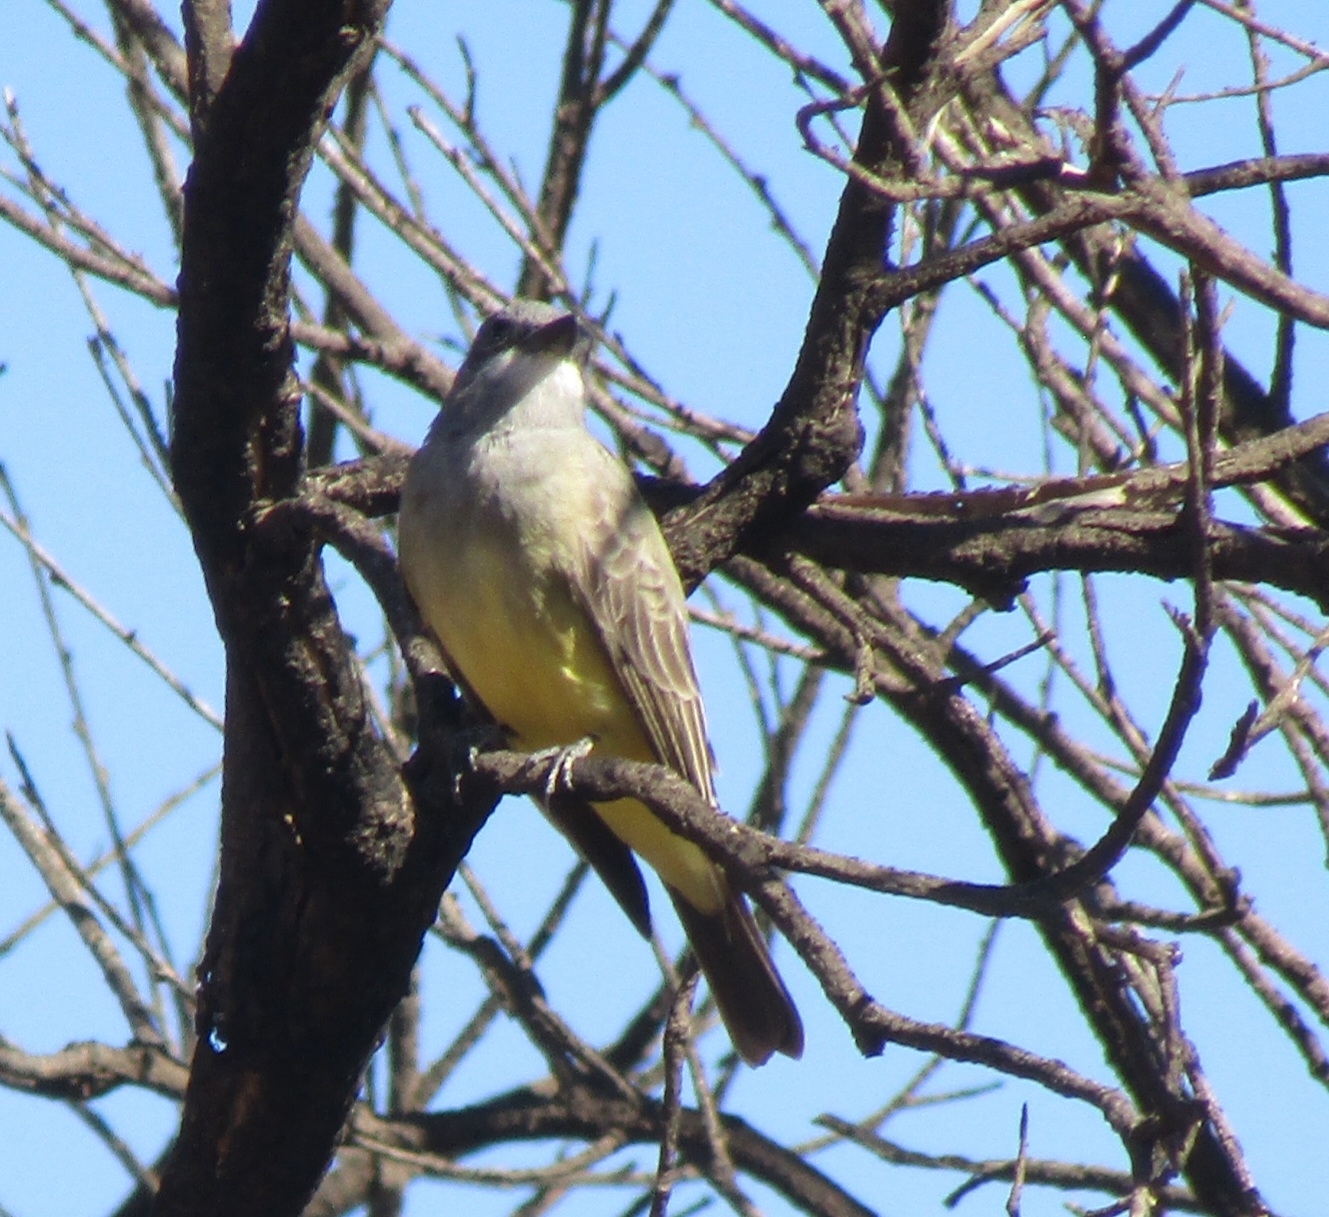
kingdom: Animalia
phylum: Chordata
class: Aves
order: Passeriformes
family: Tyrannidae
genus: Tyrannus
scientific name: Tyrannus vociferans
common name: Cassin's kingbird
